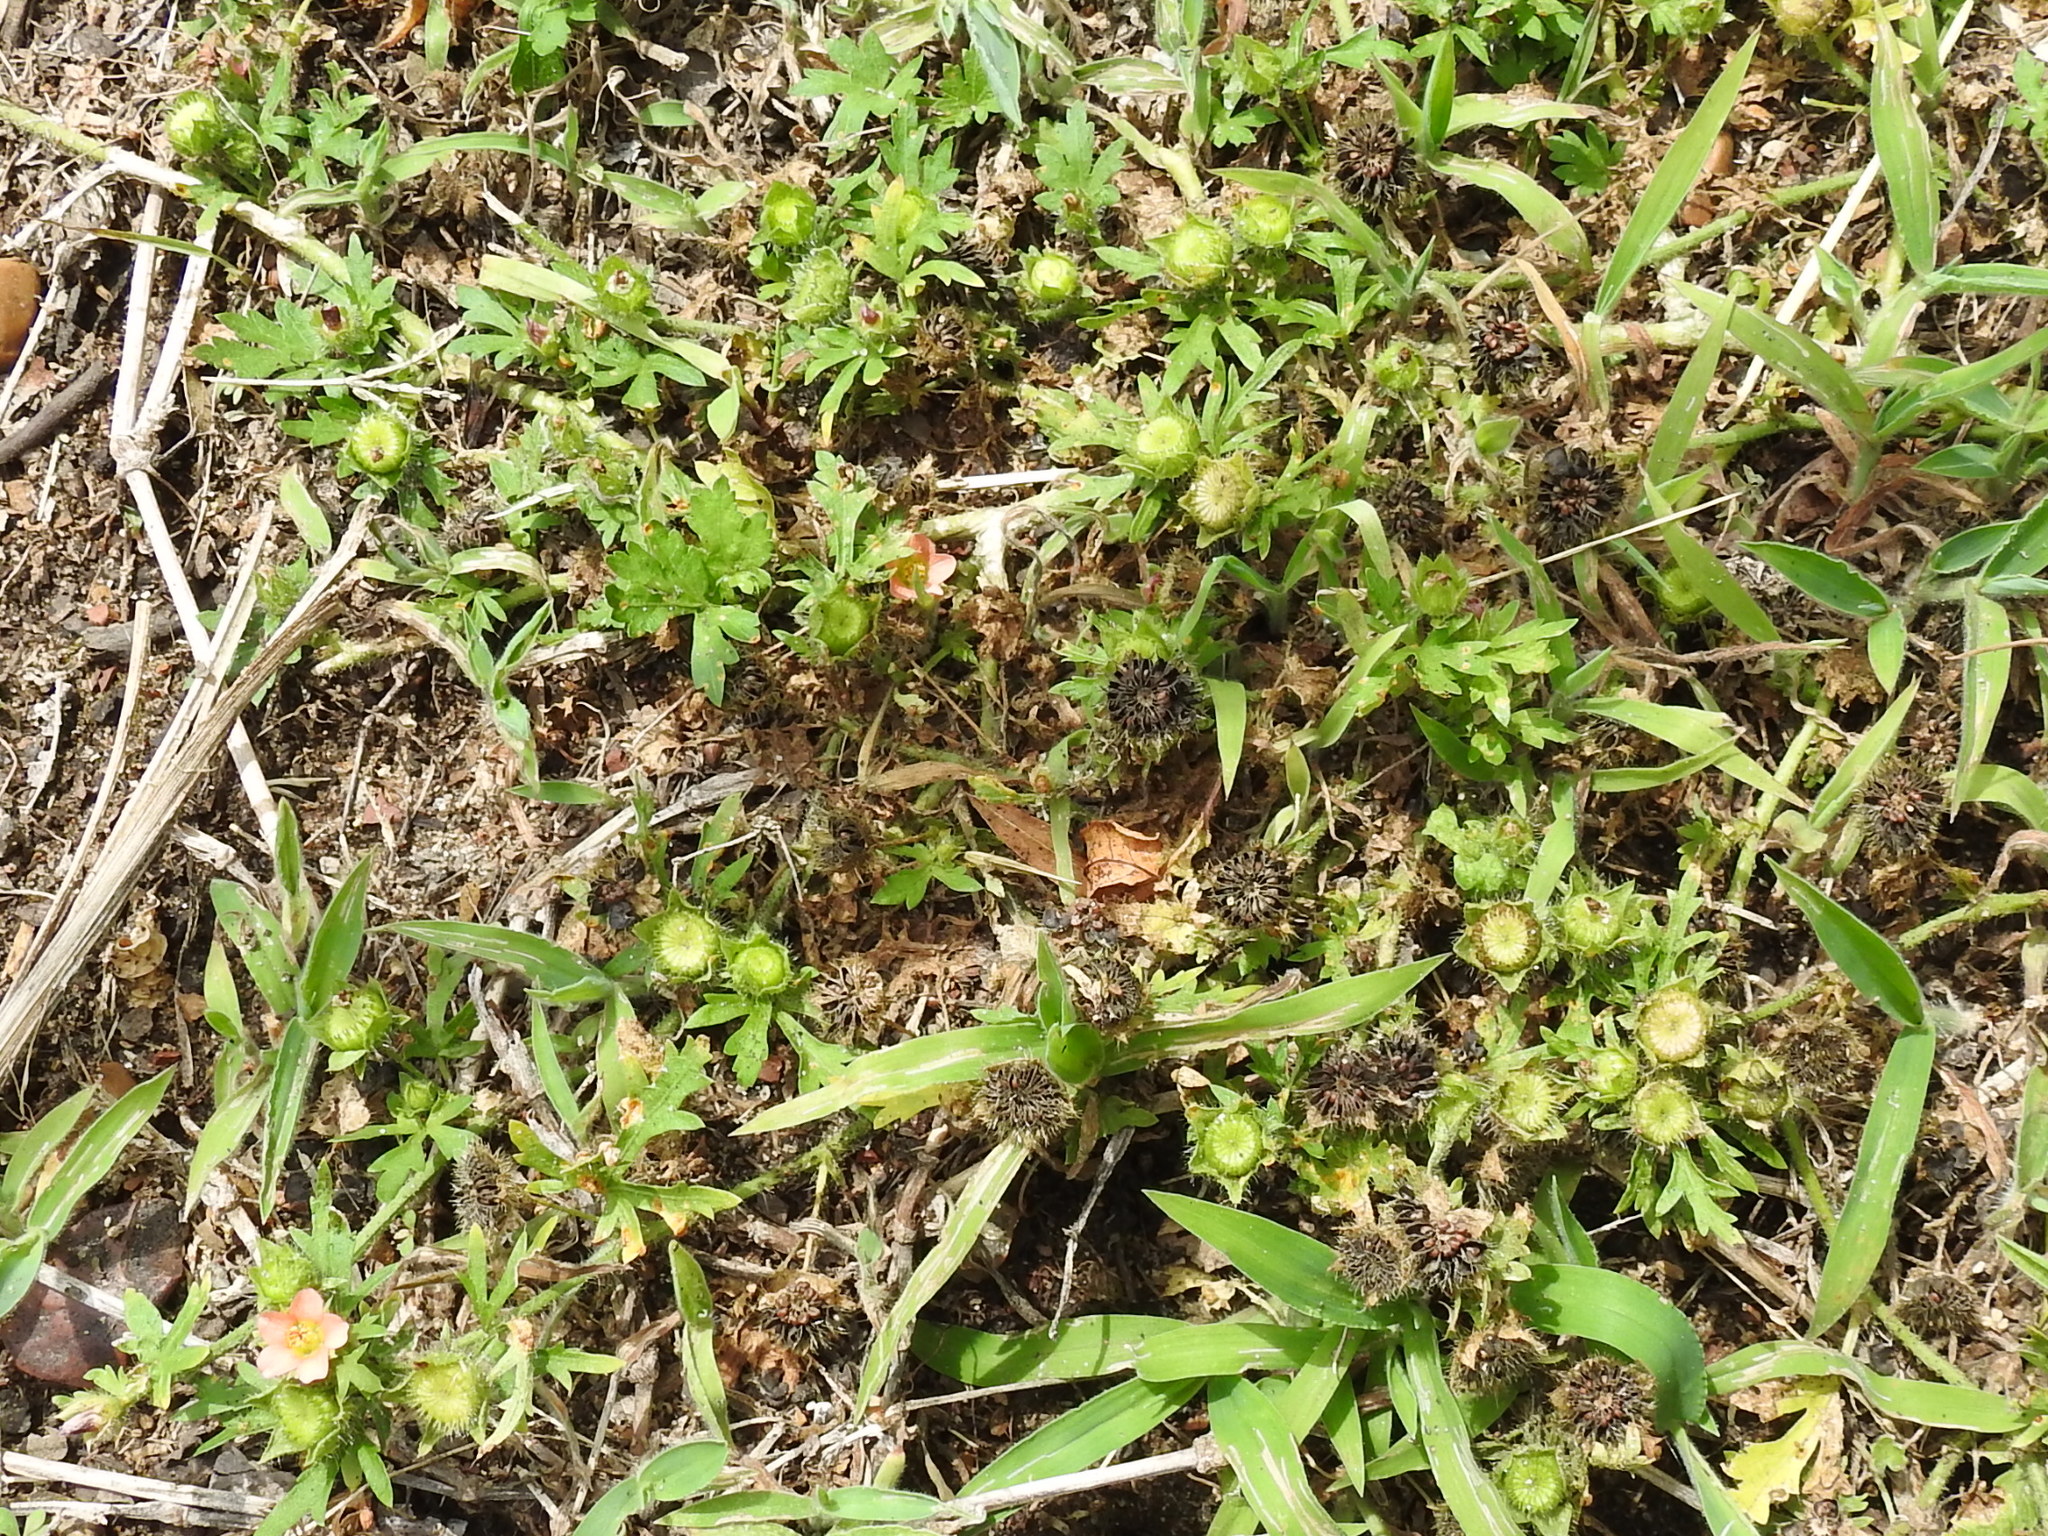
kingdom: Plantae
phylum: Tracheophyta
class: Magnoliopsida
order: Malvales
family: Malvaceae
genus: Modiola
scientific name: Modiola caroliniana
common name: Carolina bristlemallow
